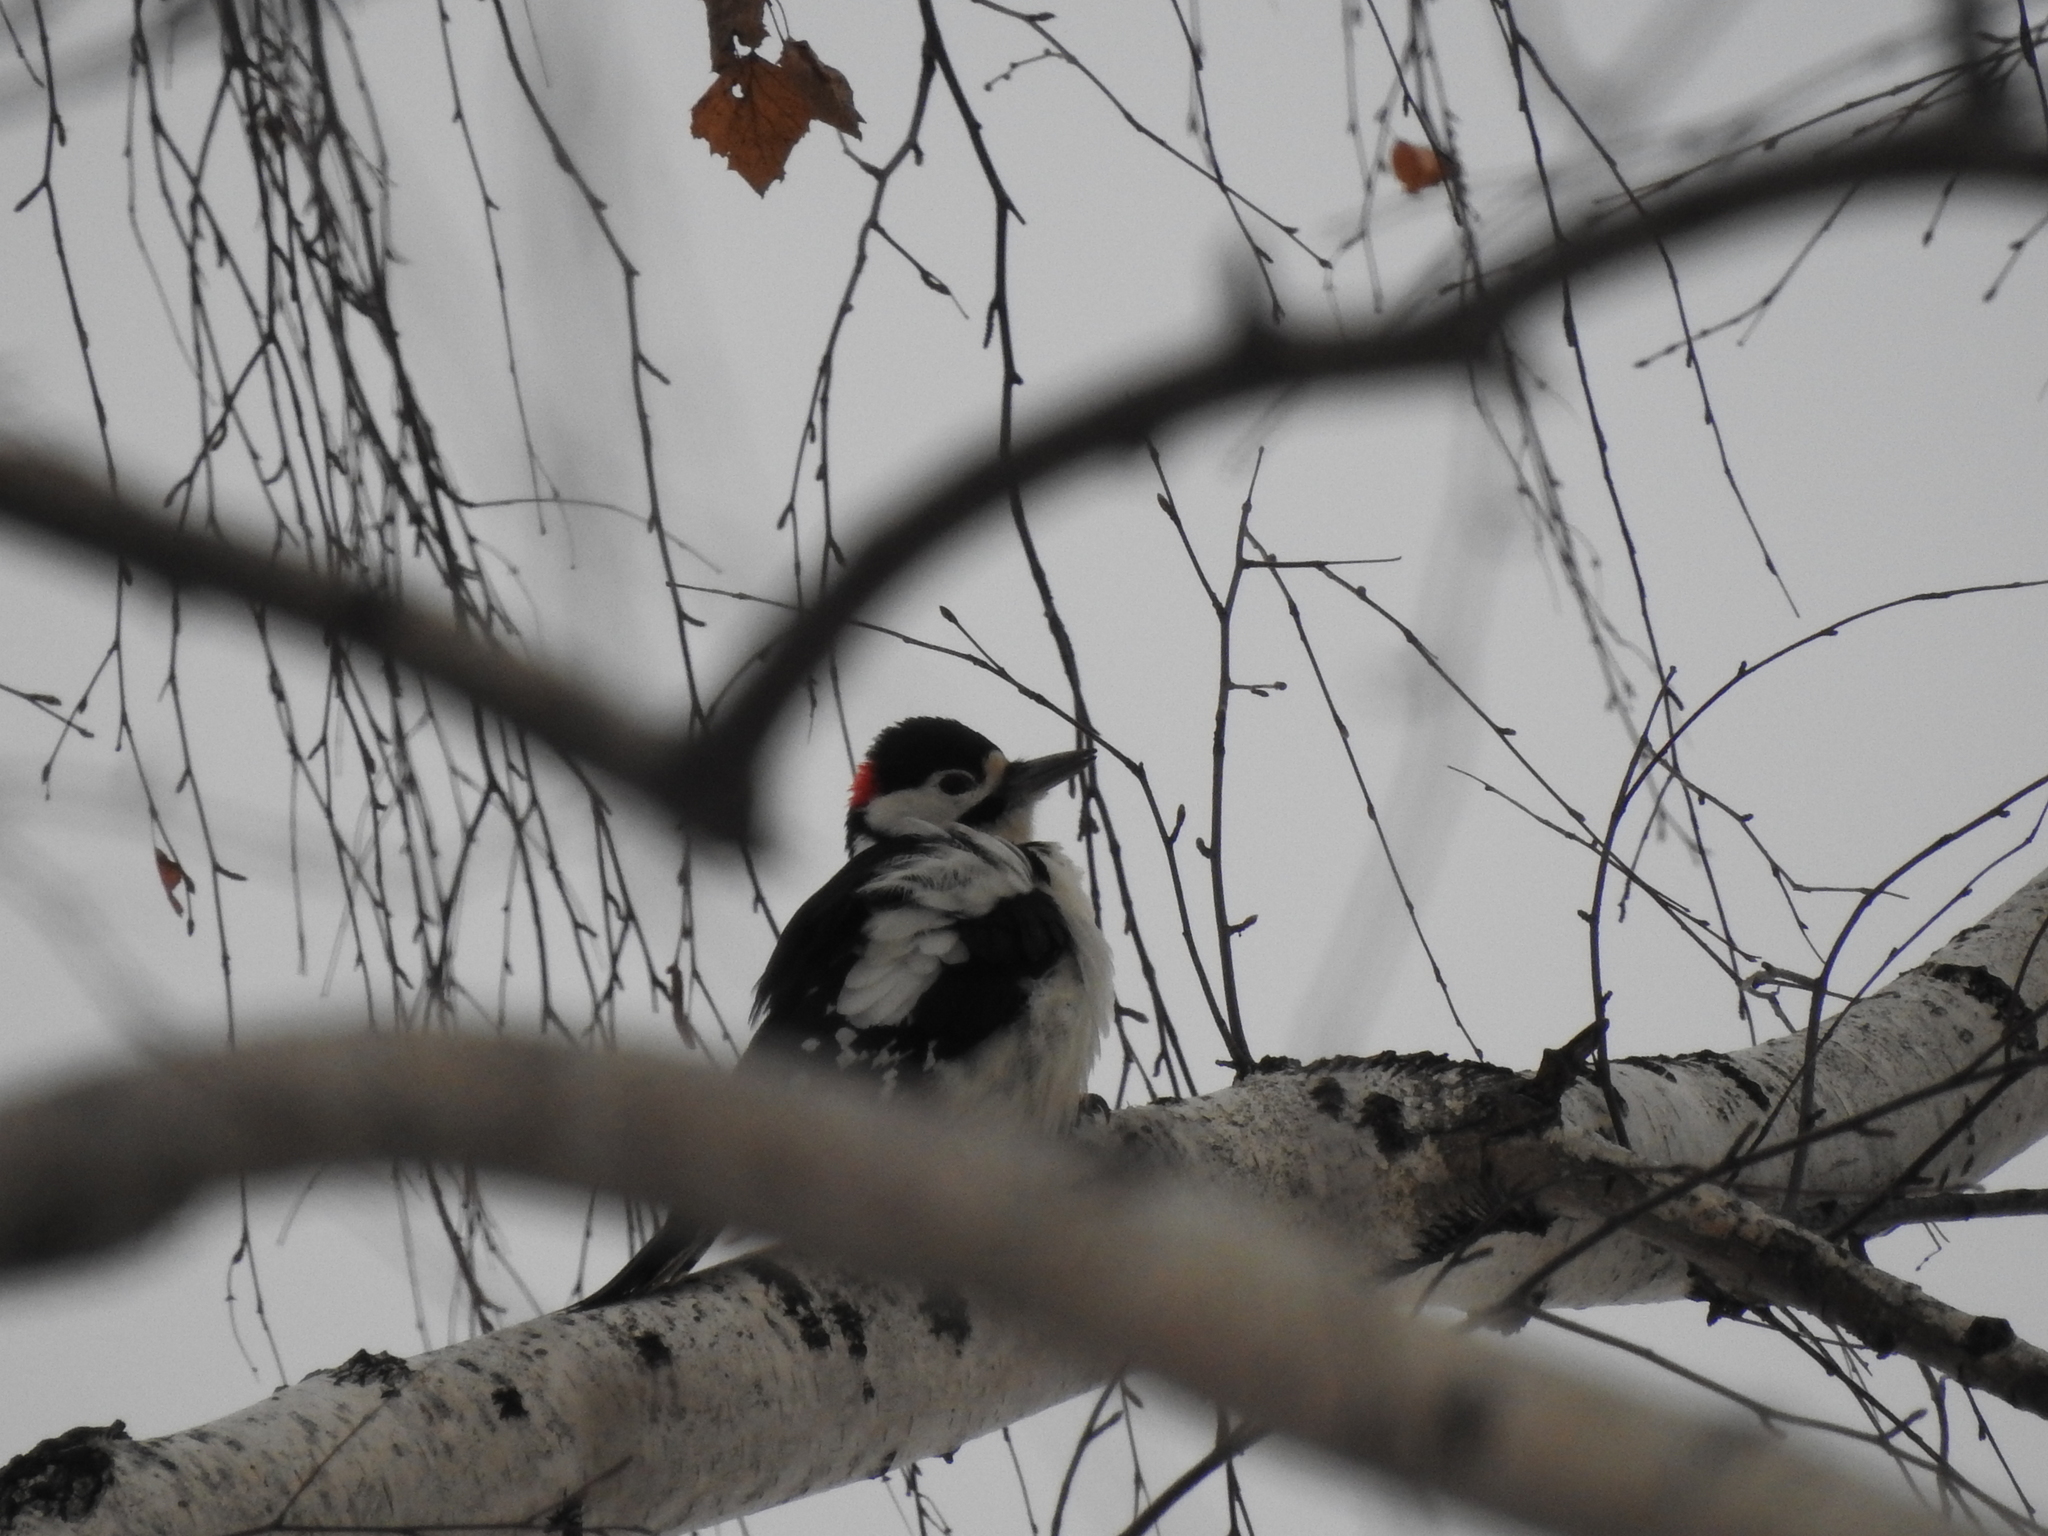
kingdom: Animalia
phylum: Chordata
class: Aves
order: Piciformes
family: Picidae
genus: Dendrocopos
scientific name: Dendrocopos major
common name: Great spotted woodpecker
